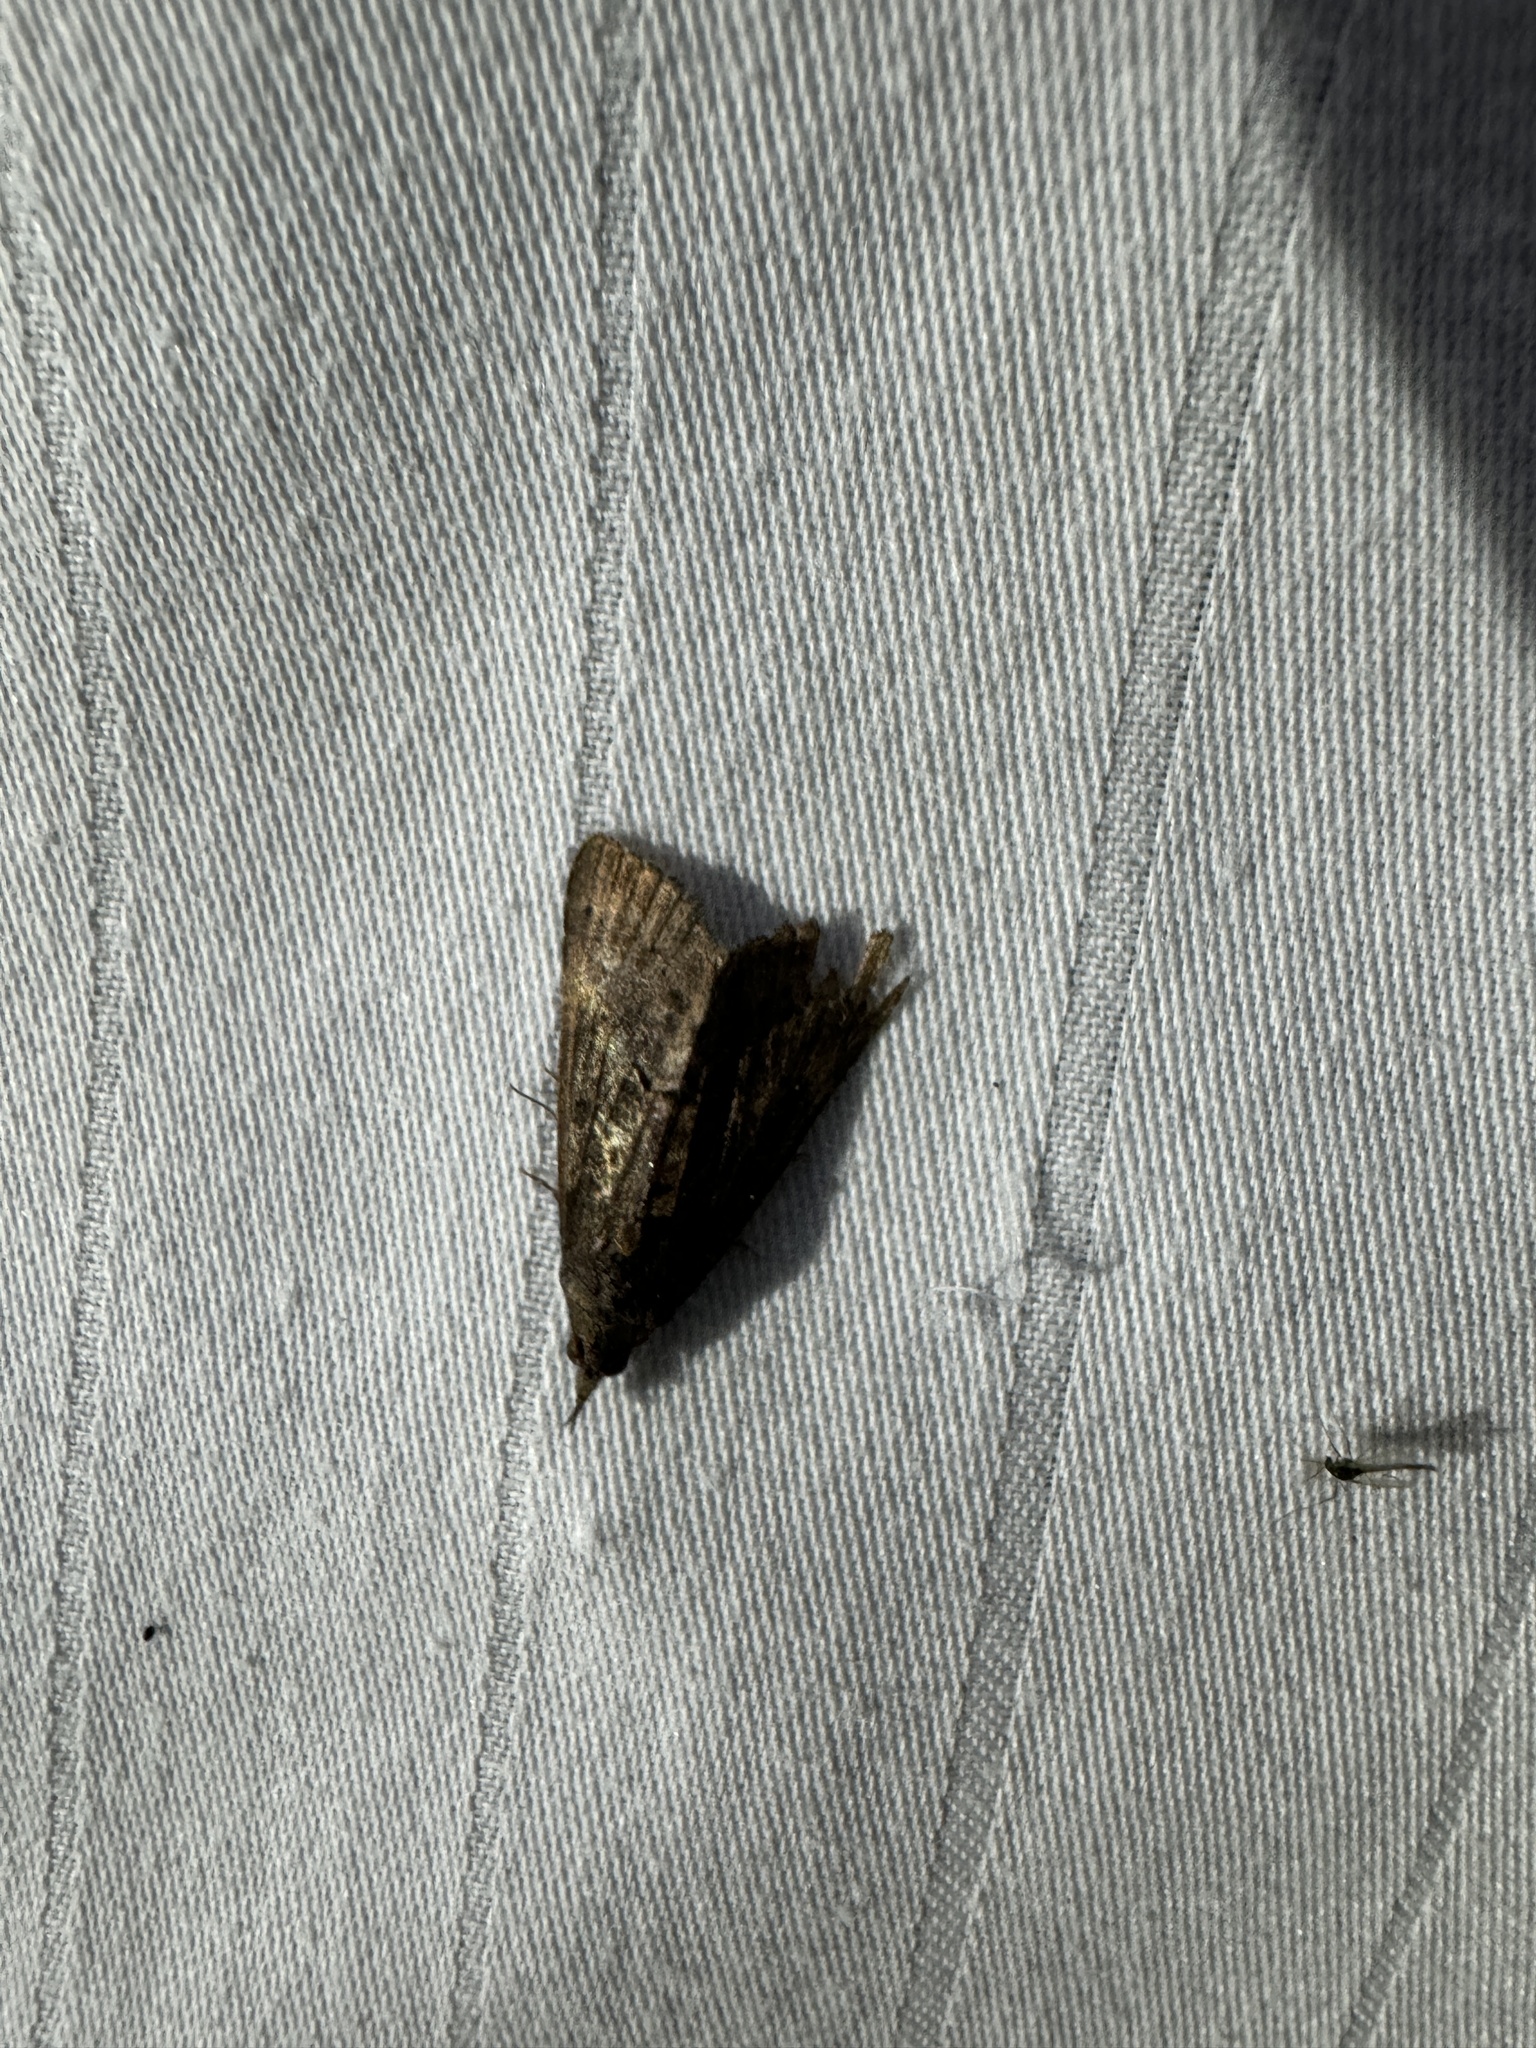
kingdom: Animalia
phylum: Arthropoda
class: Insecta
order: Lepidoptera
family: Erebidae
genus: Hypena
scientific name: Hypena scabra
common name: Green cloverworm
